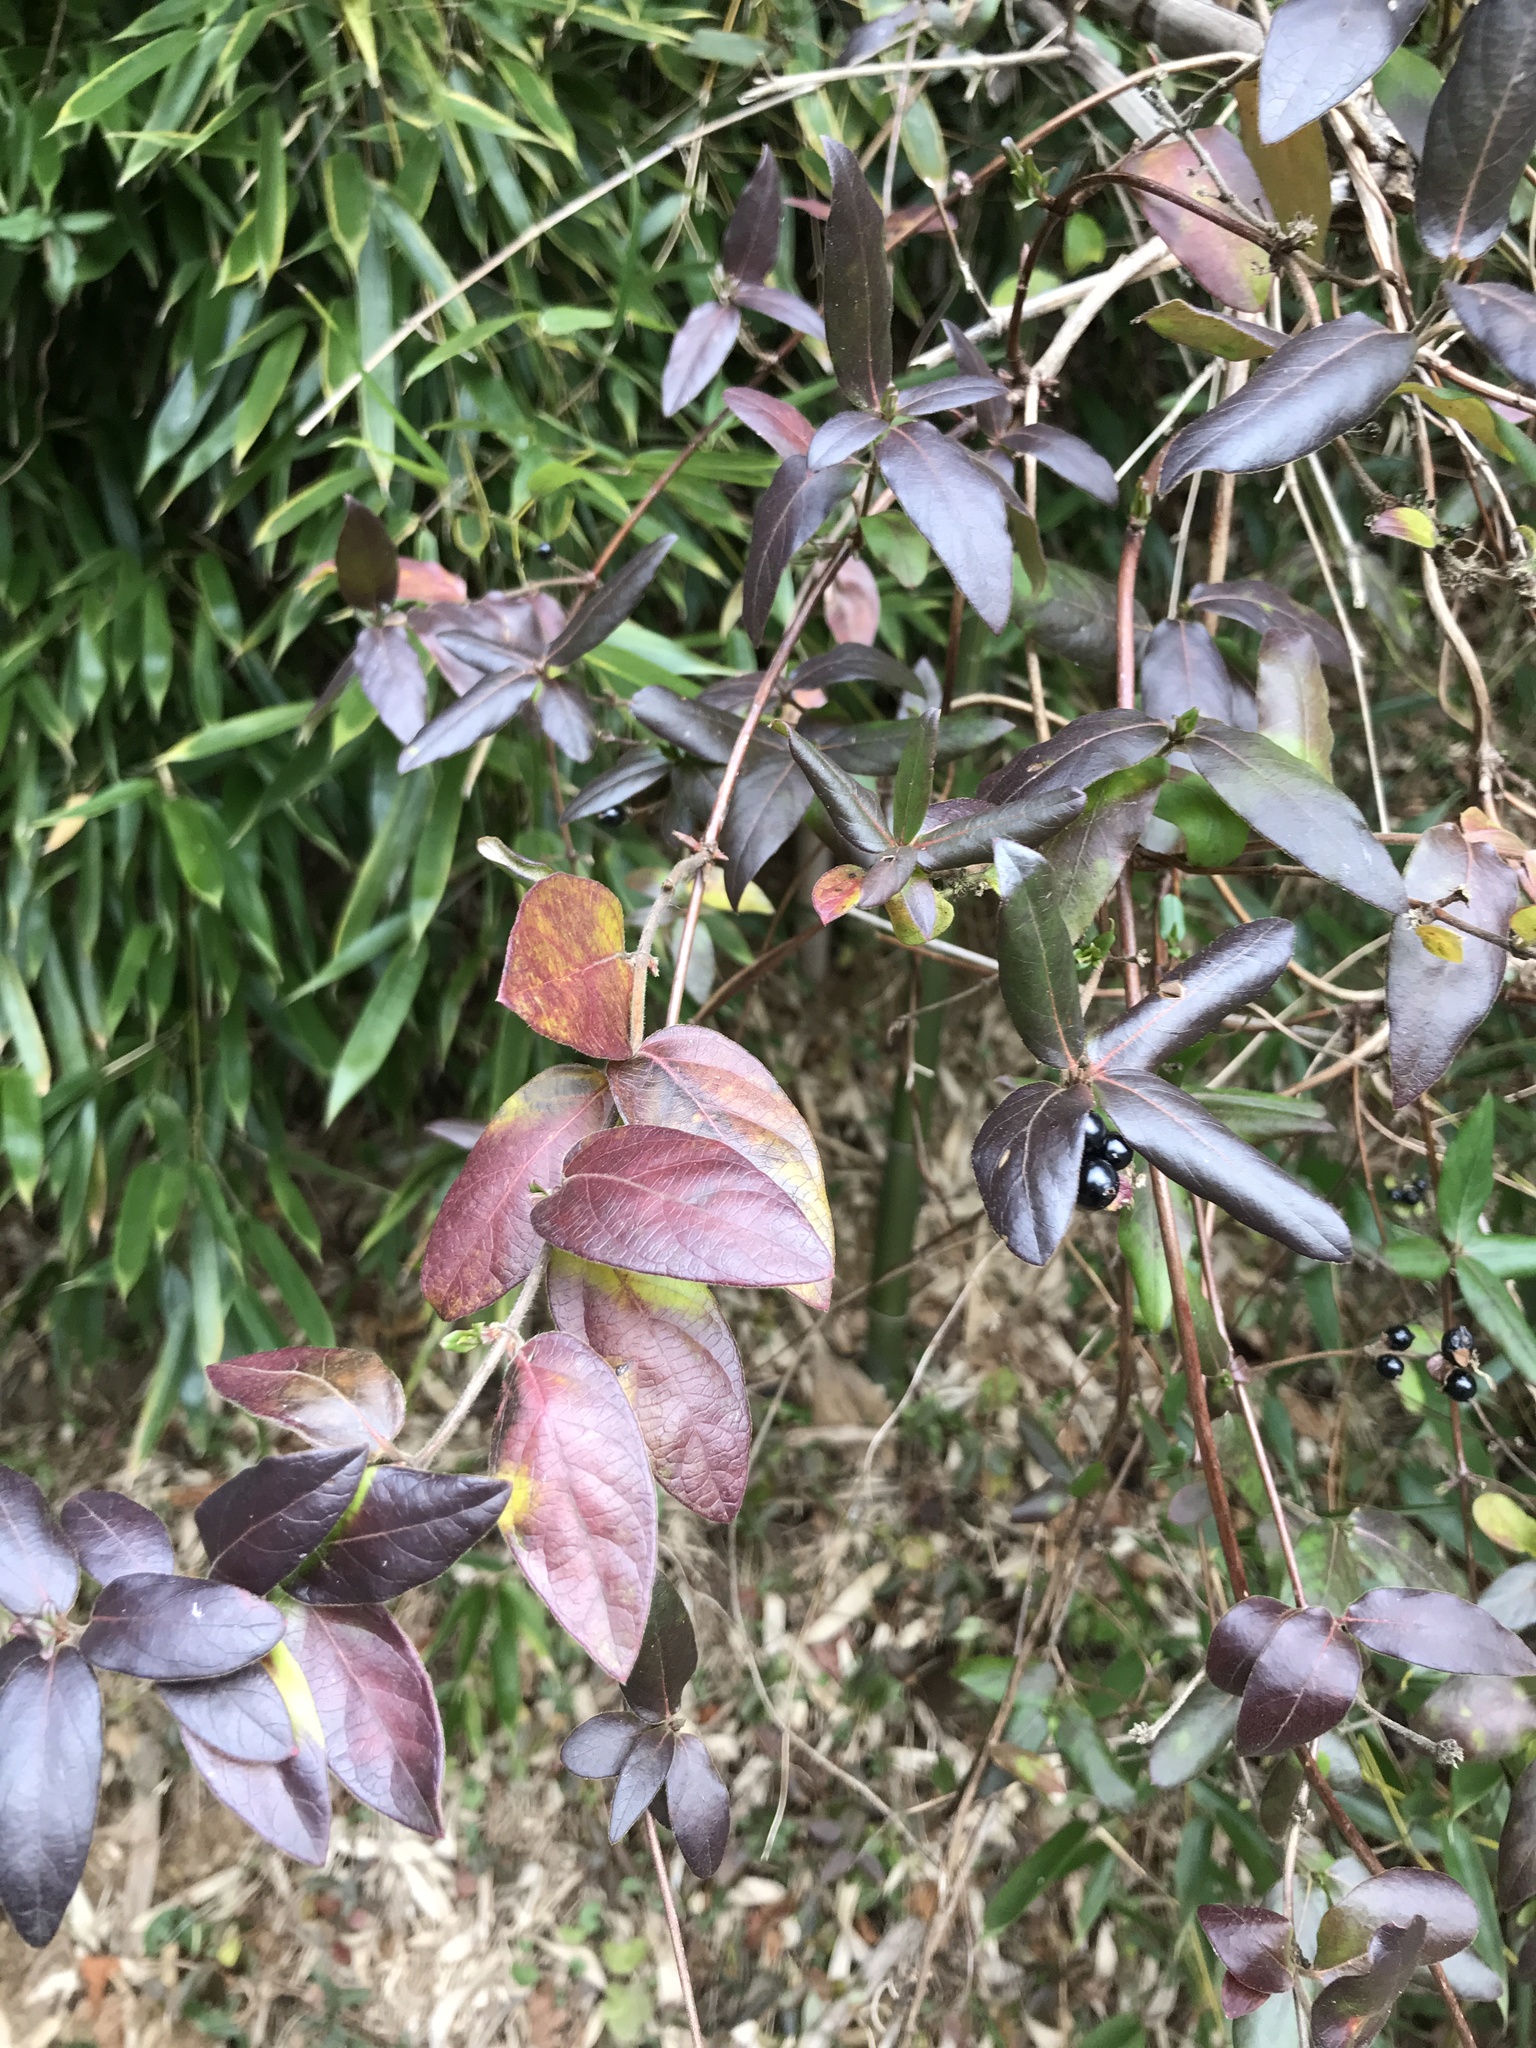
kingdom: Plantae
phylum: Tracheophyta
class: Magnoliopsida
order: Dipsacales
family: Caprifoliaceae
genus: Lonicera
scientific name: Lonicera japonica
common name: Japanese honeysuckle
